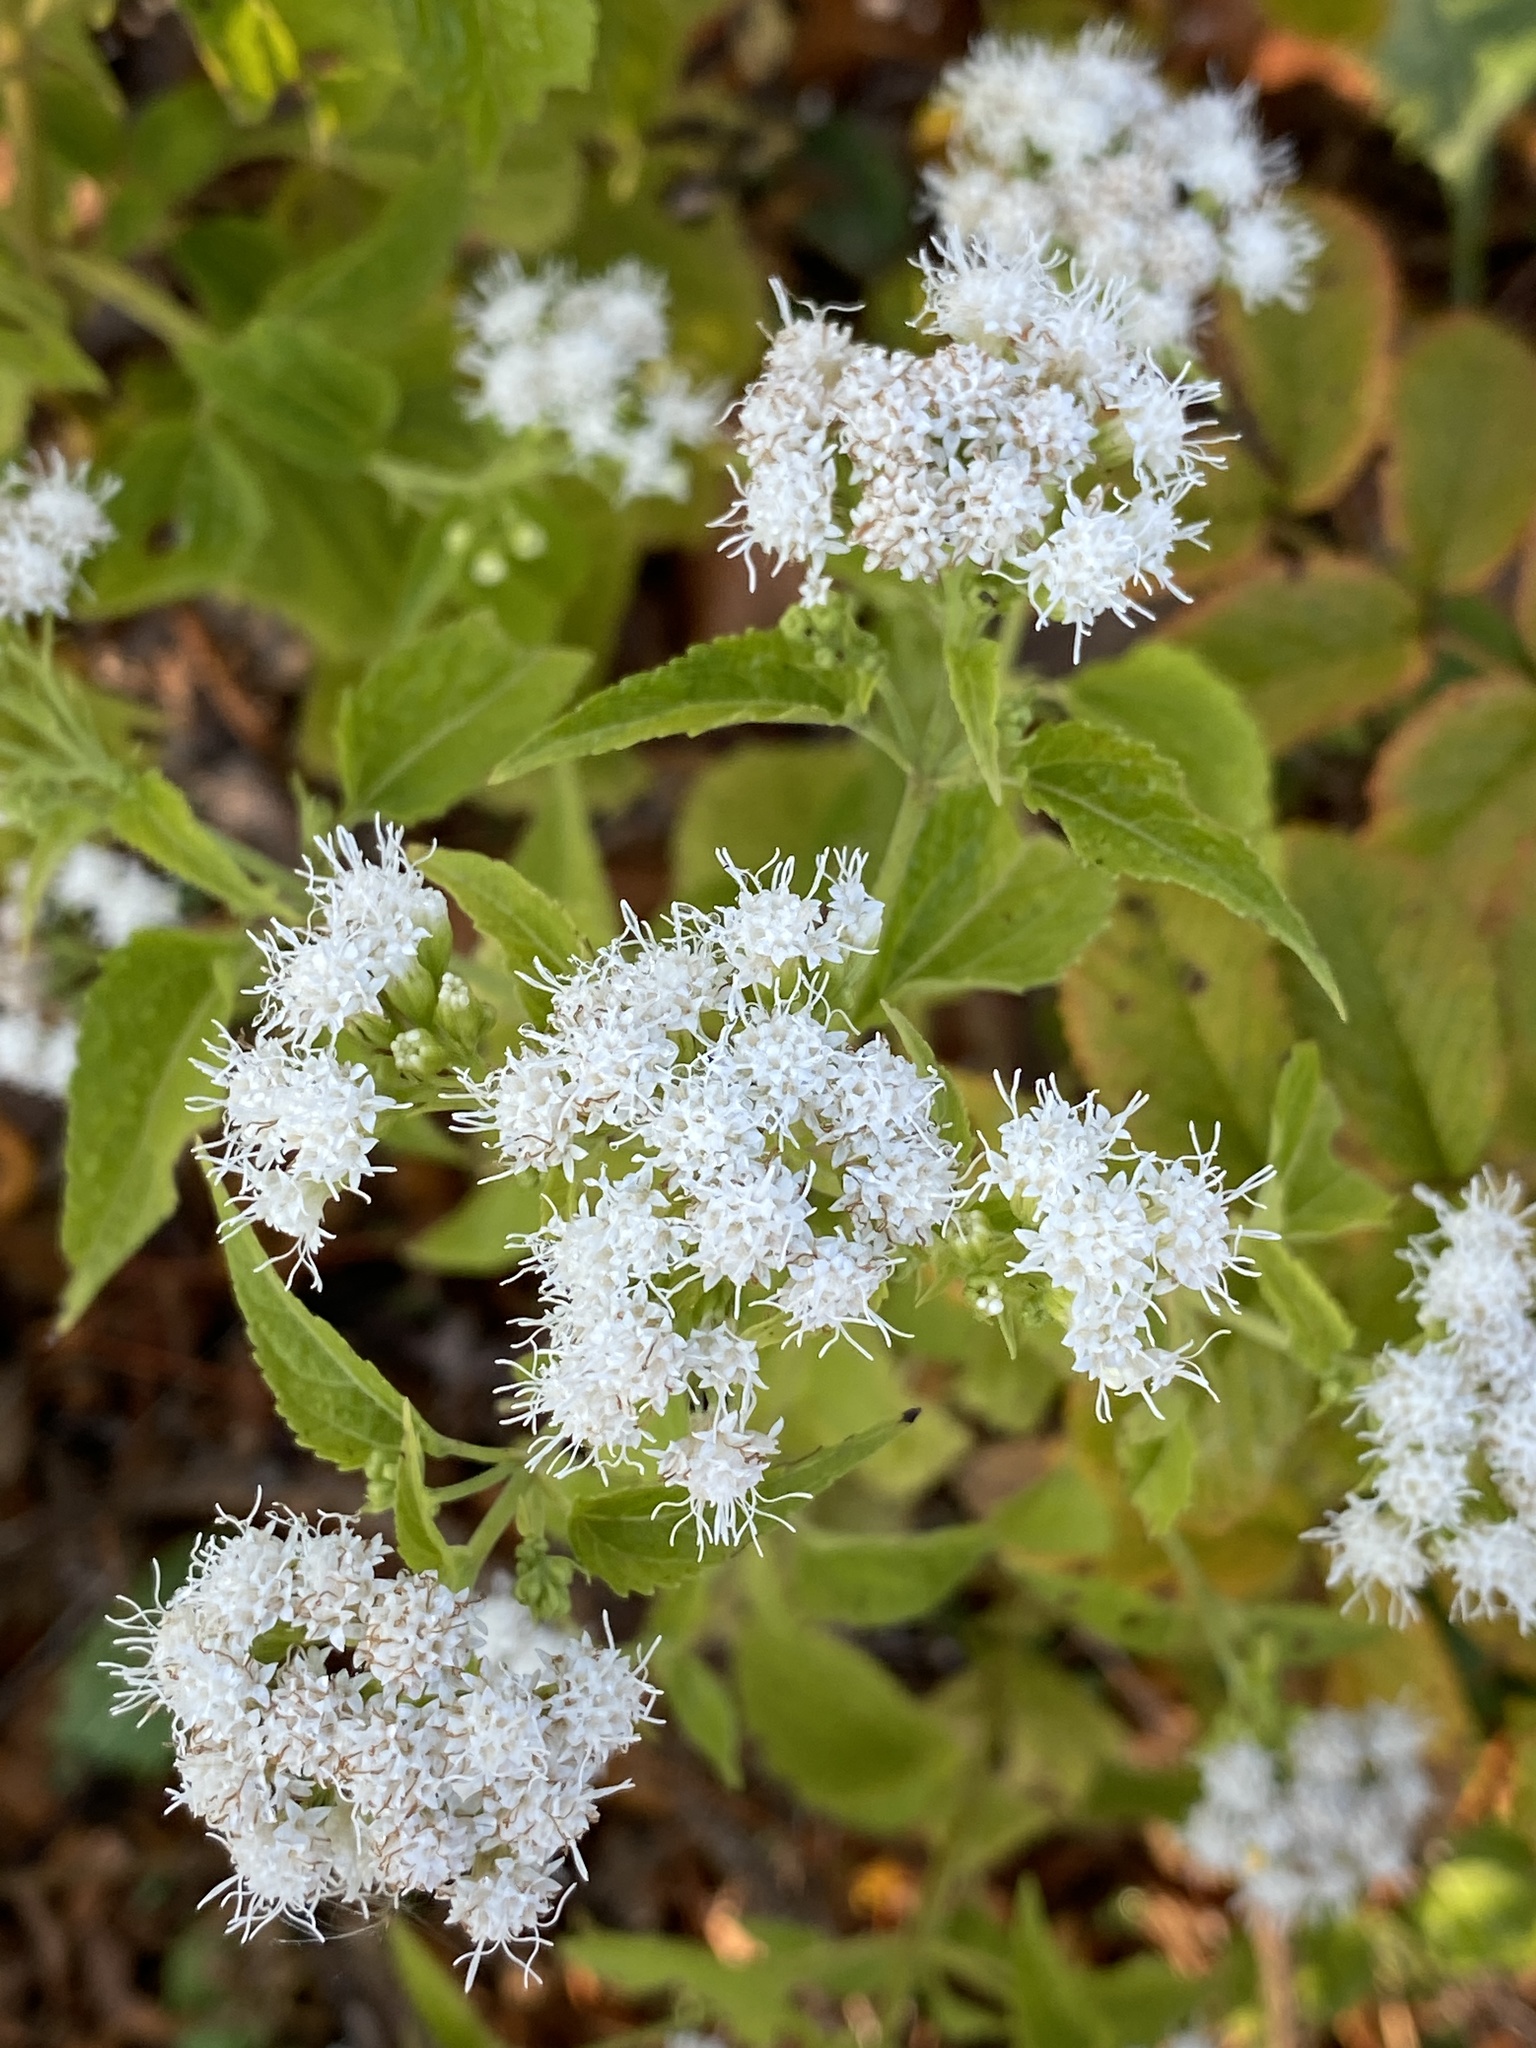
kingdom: Plantae
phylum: Tracheophyta
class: Magnoliopsida
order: Asterales
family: Asteraceae
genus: Ageratina
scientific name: Ageratina altissima
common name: White snakeroot
